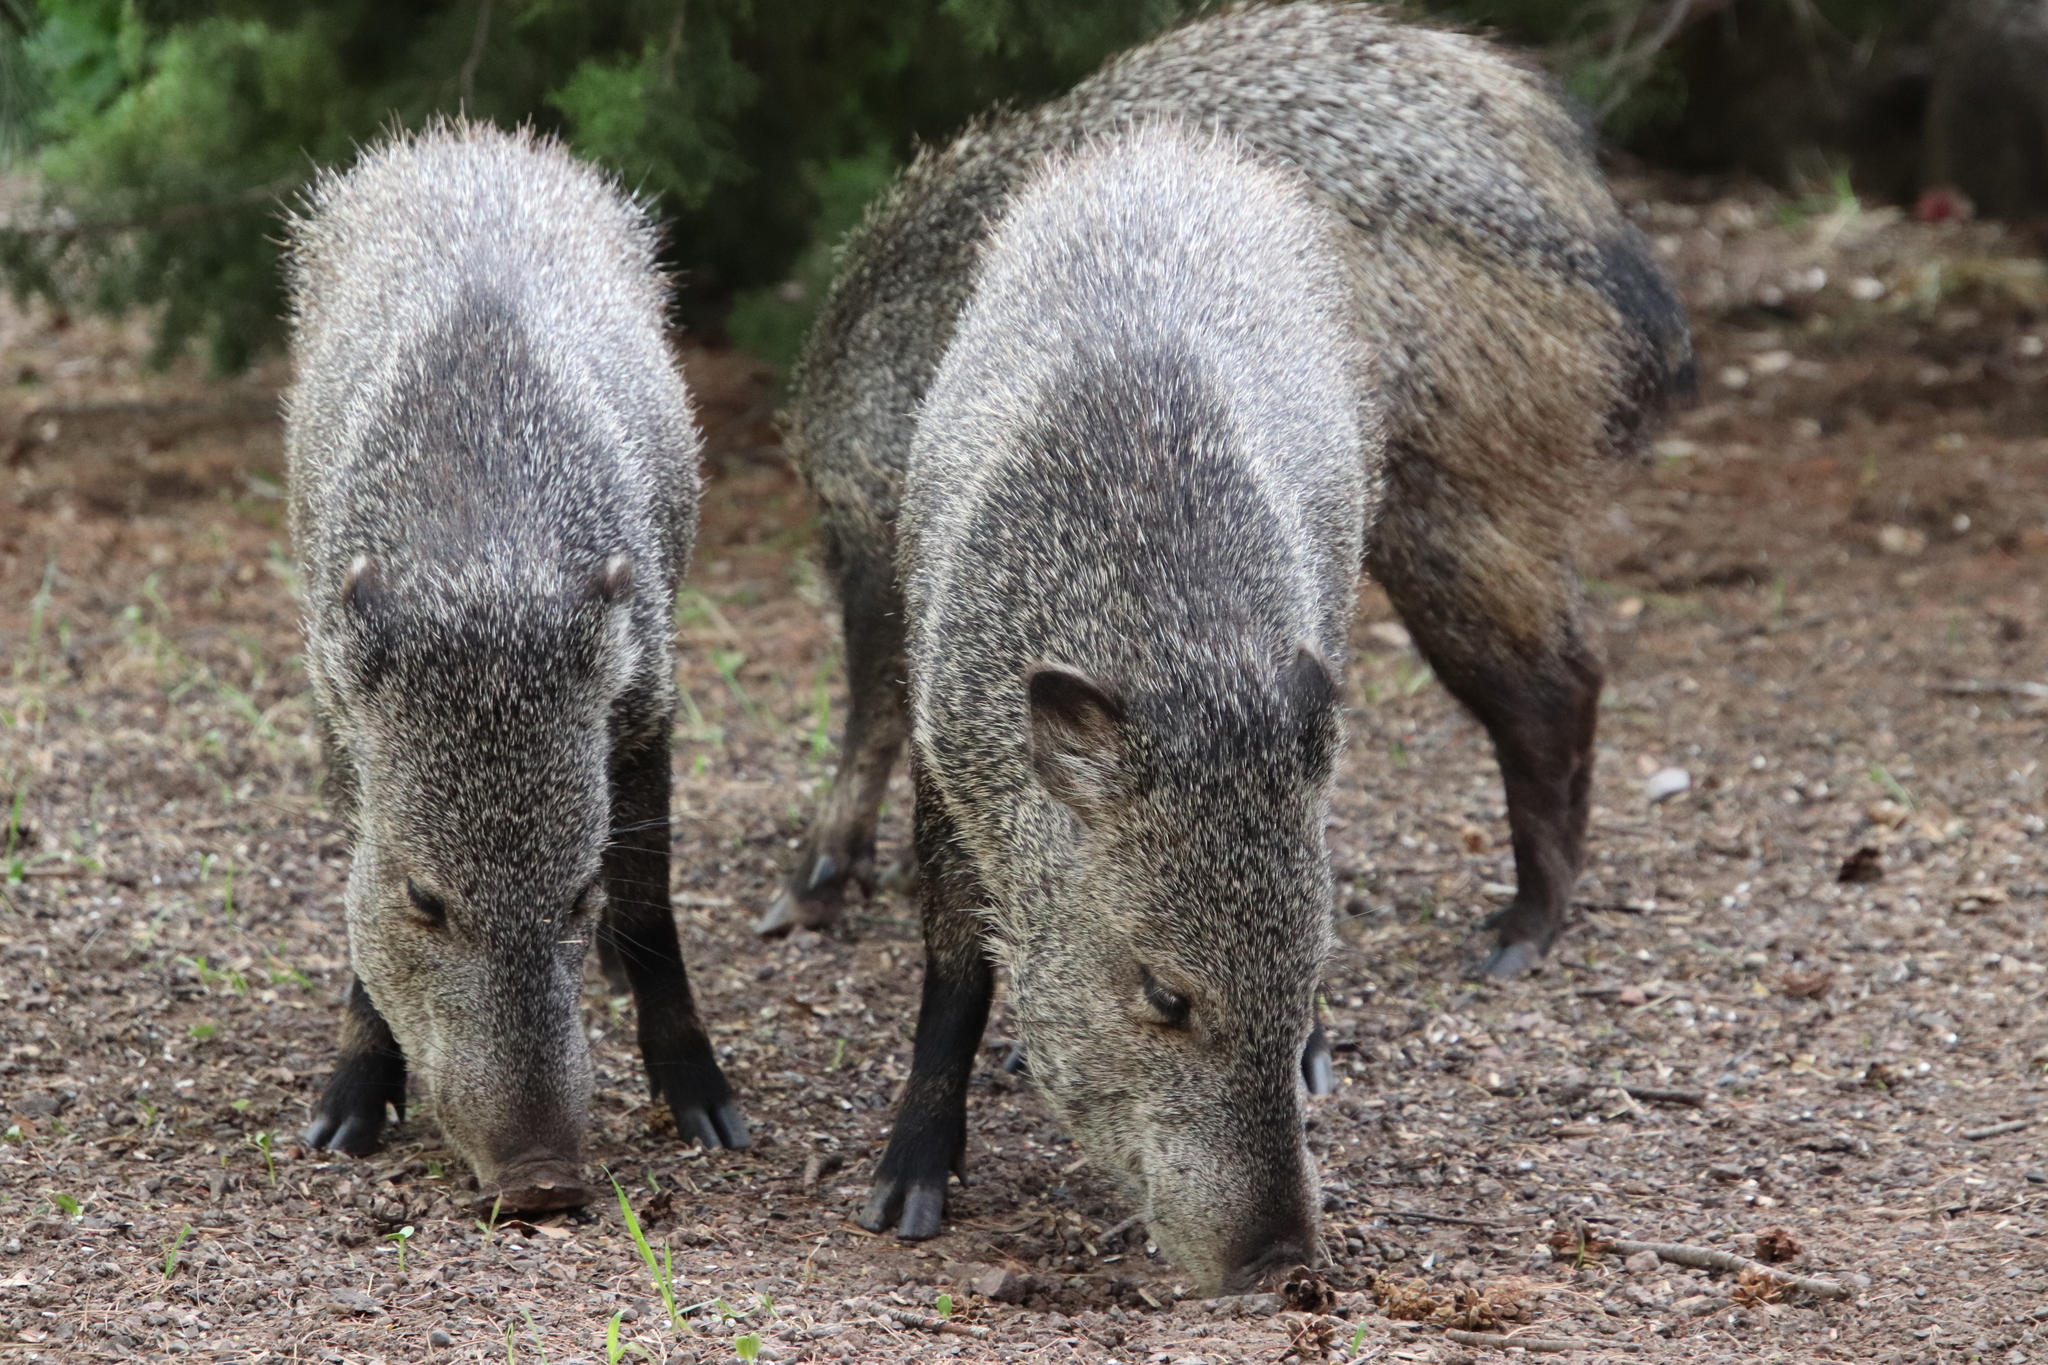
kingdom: Animalia
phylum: Chordata
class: Mammalia
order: Artiodactyla
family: Tayassuidae
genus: Pecari
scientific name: Pecari tajacu
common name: Collared peccary
